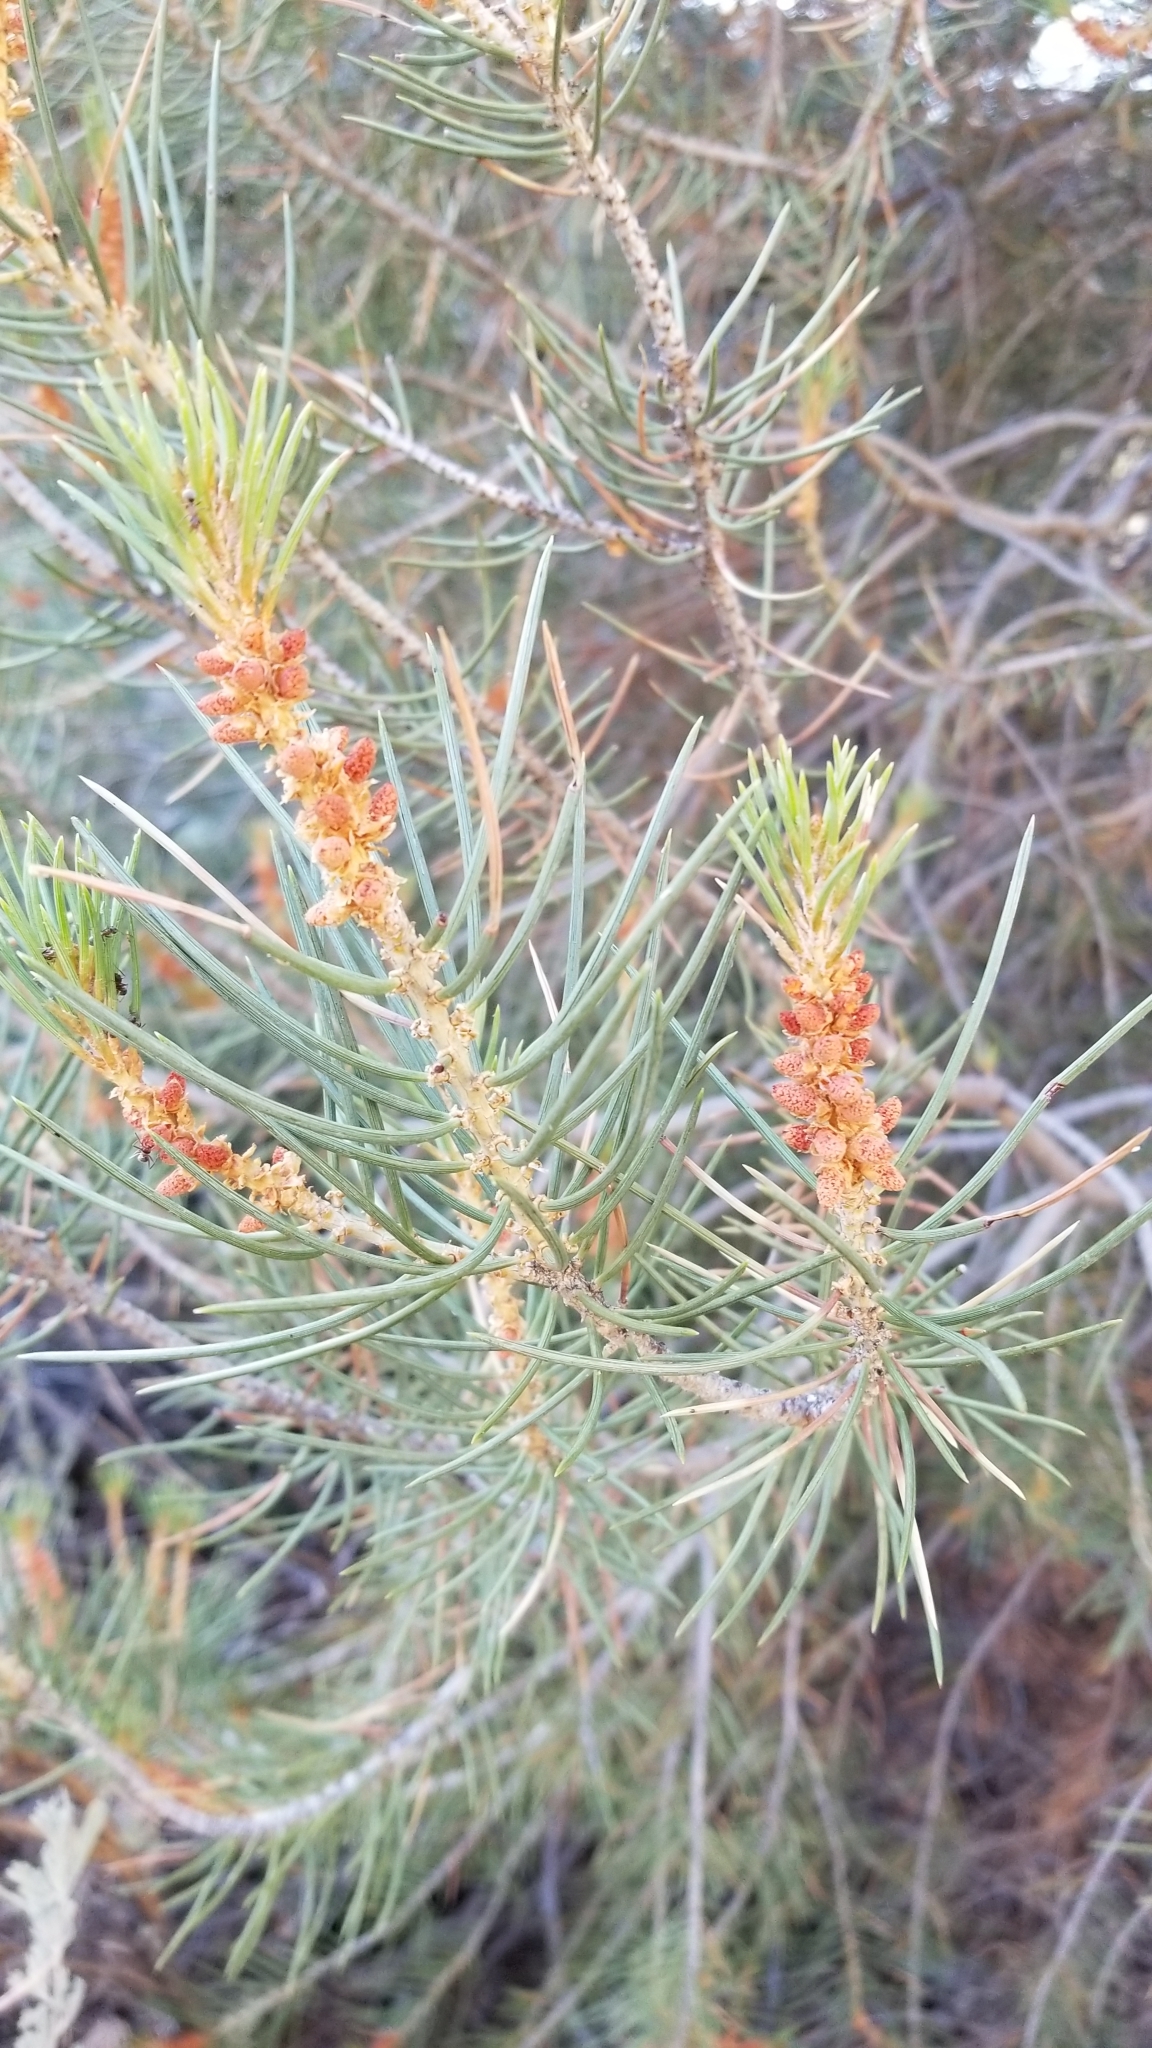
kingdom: Plantae
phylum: Tracheophyta
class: Pinopsida
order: Pinales
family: Pinaceae
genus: Pinus
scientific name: Pinus monophylla
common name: One-leaved nut pine
